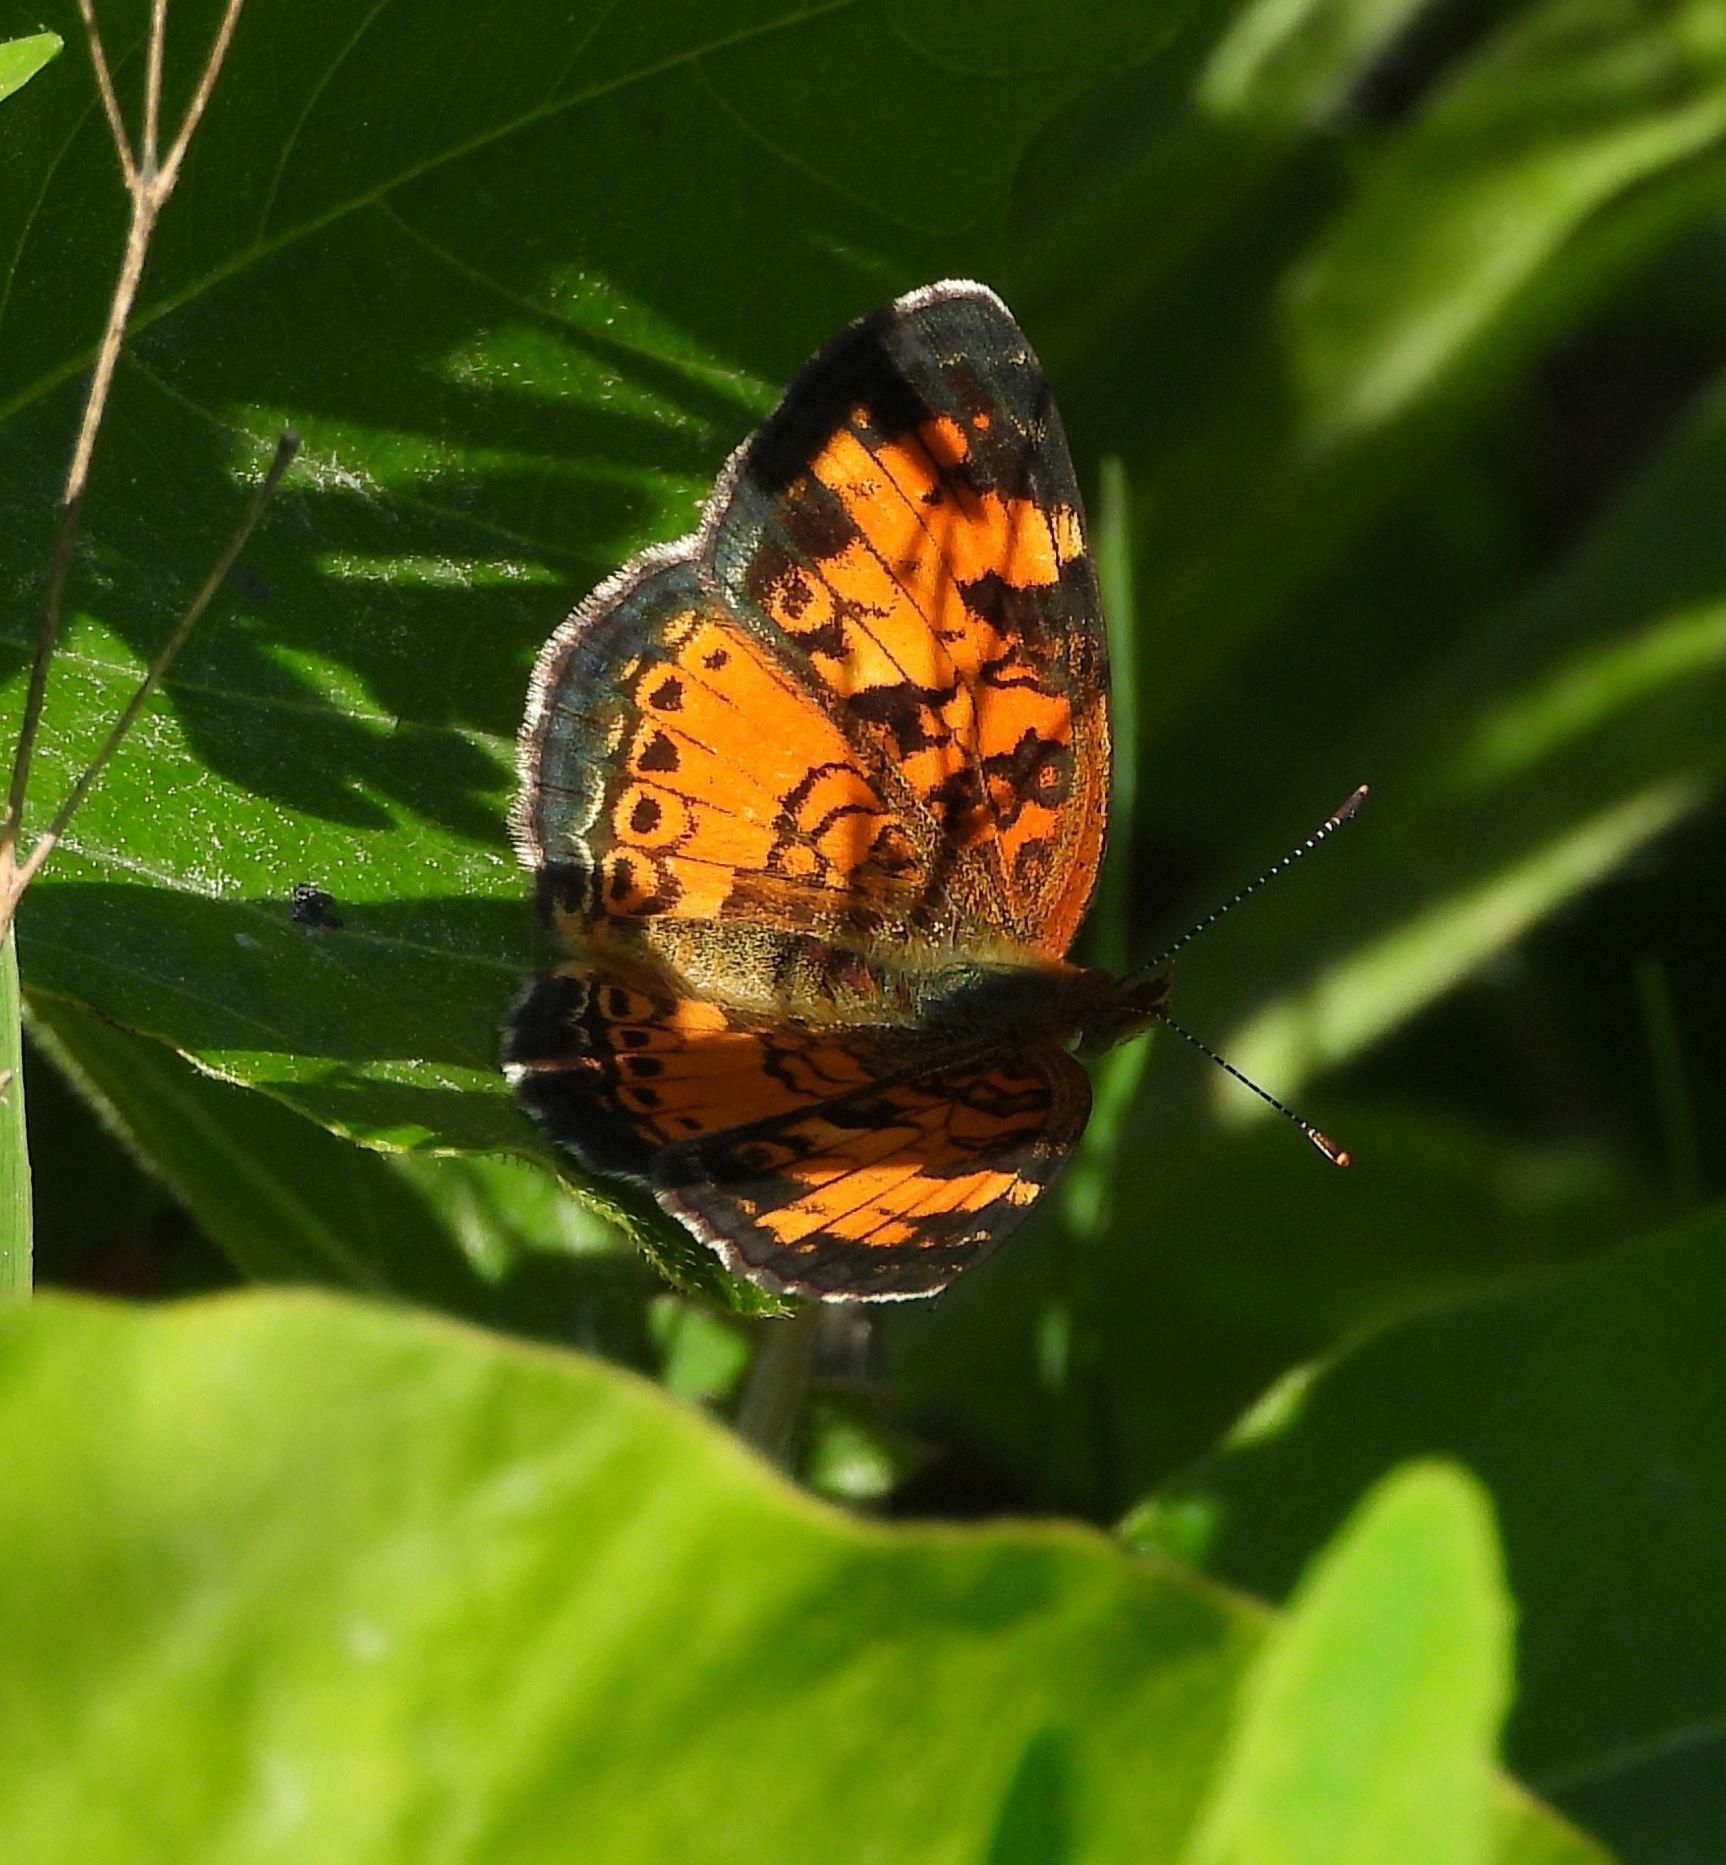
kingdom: Animalia
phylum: Arthropoda
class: Insecta
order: Lepidoptera
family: Nymphalidae
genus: Phyciodes
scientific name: Phyciodes tharos
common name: Pearl crescent
